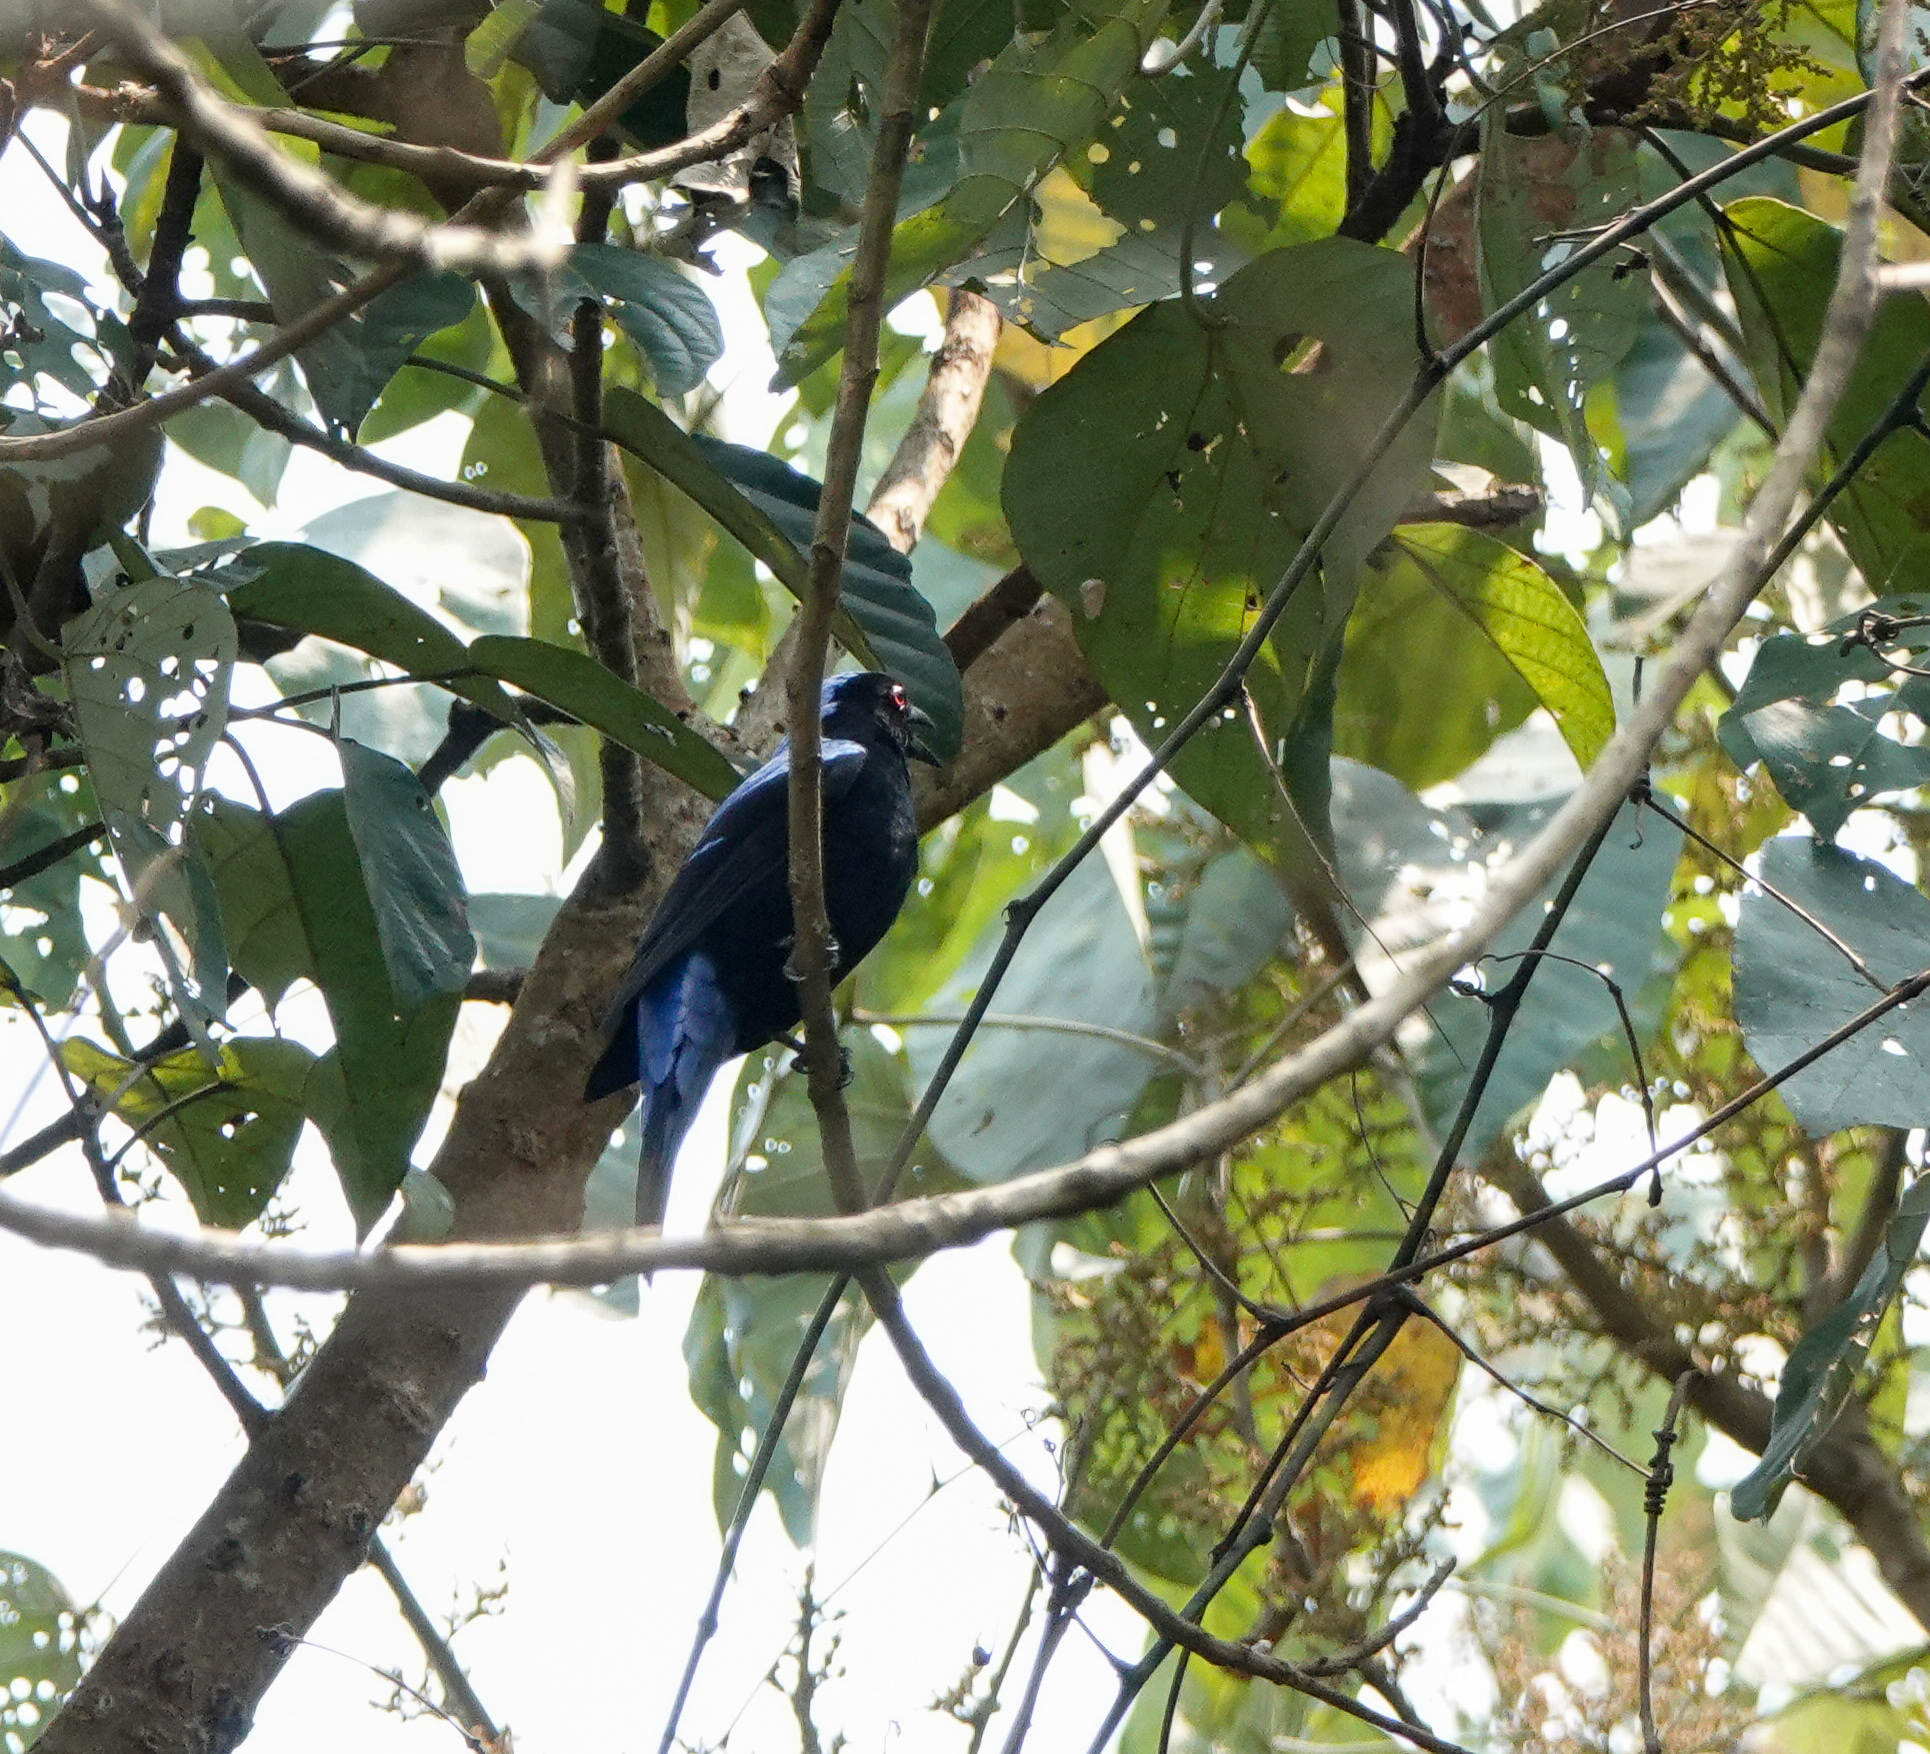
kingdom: Animalia
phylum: Chordata
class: Aves
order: Passeriformes
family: Irenidae
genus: Irena
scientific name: Irena puella
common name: Asian fairy-bluebird
